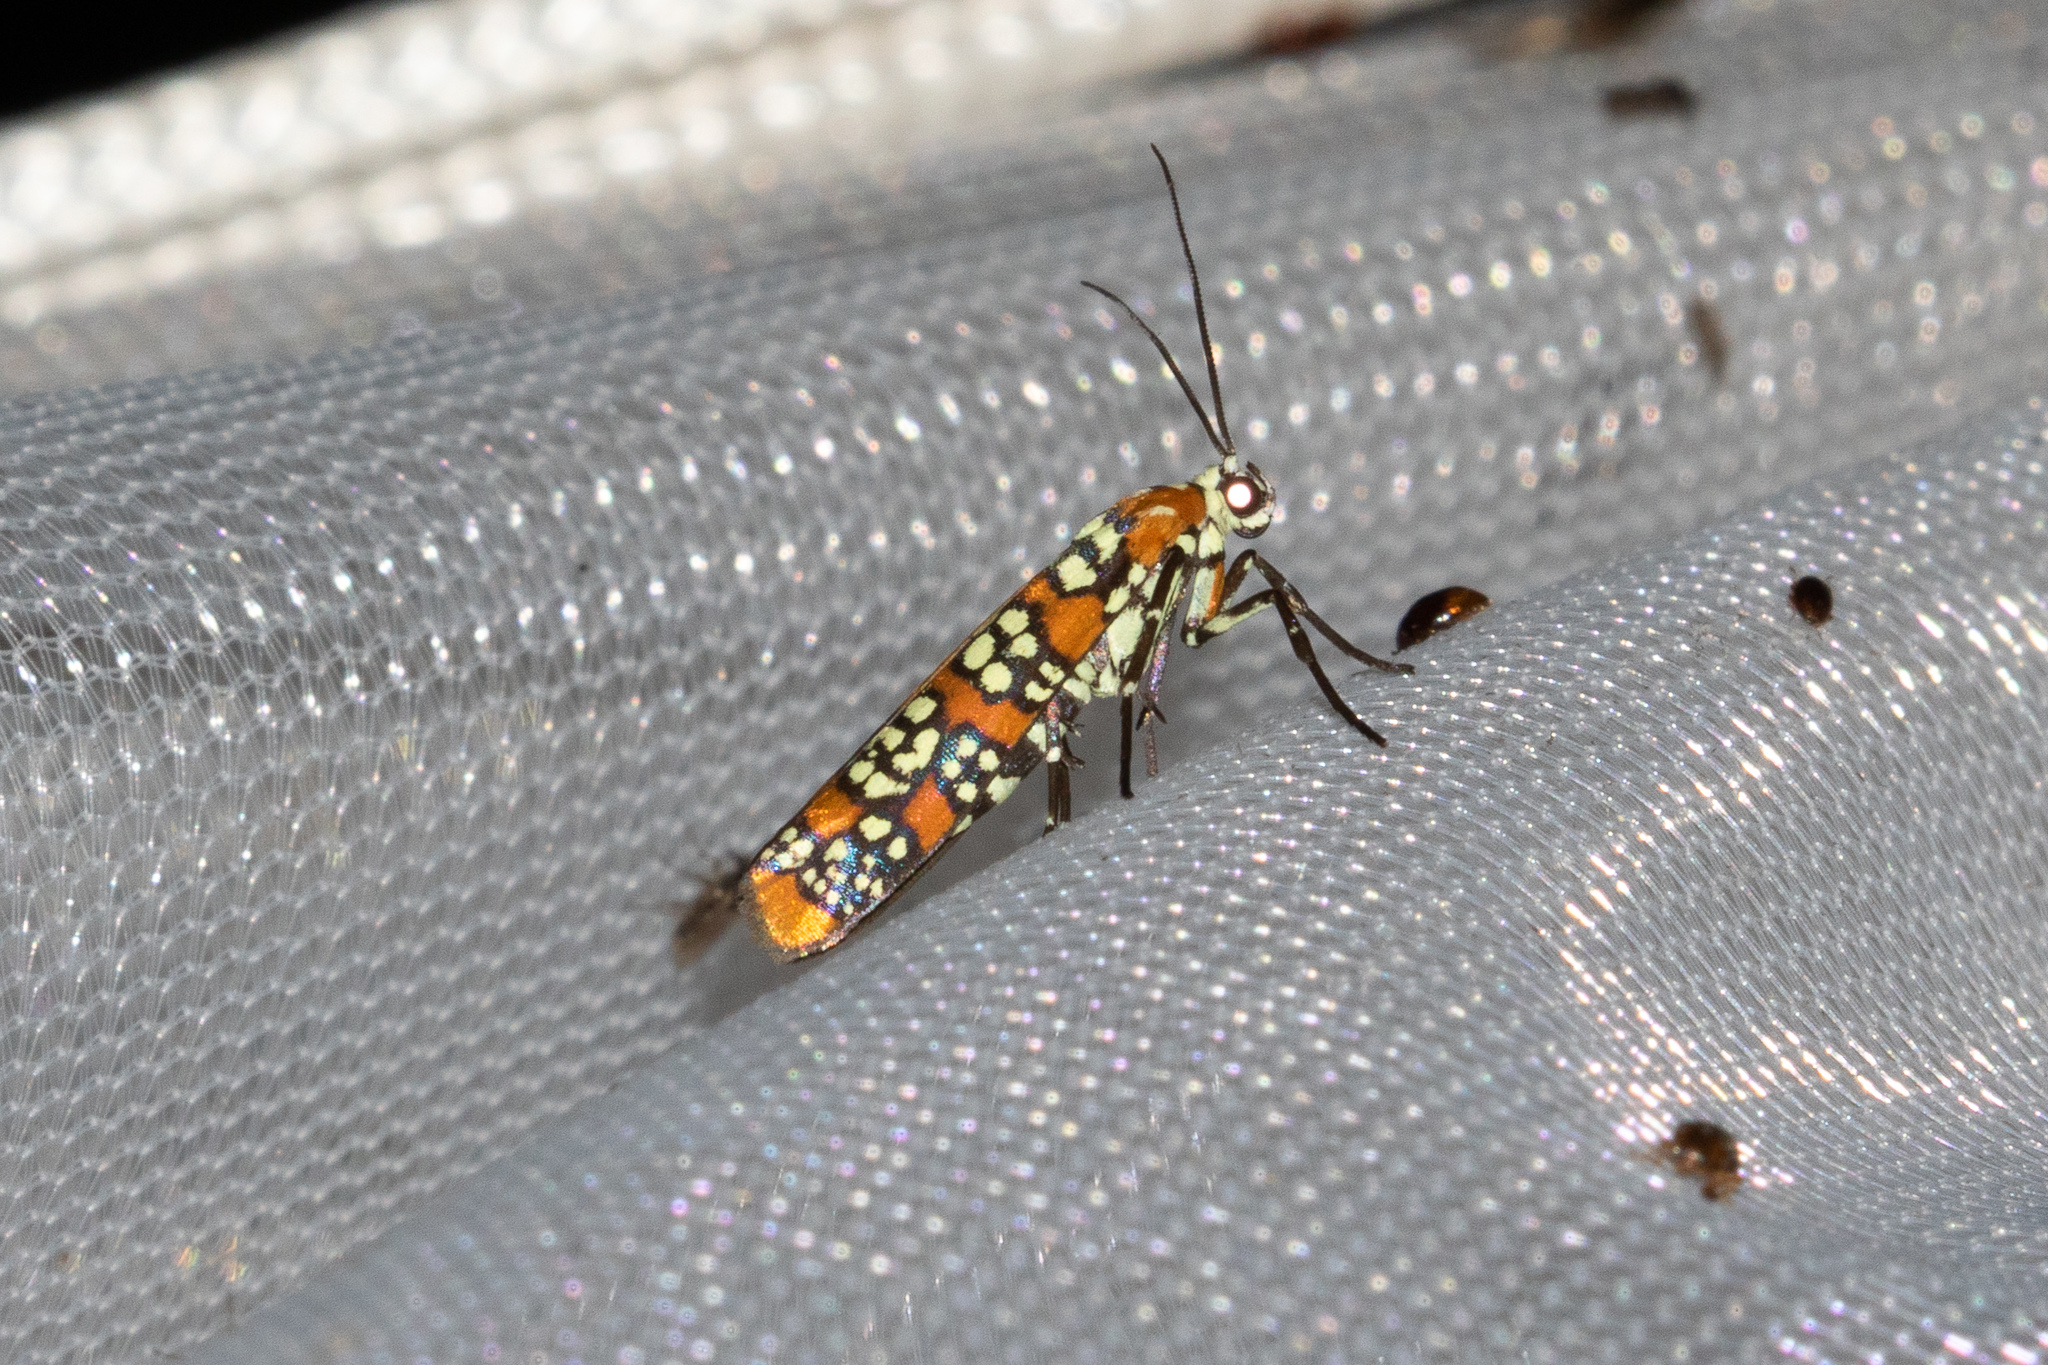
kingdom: Animalia
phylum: Arthropoda
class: Insecta
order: Lepidoptera
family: Attevidae
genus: Atteva
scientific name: Atteva punctella
